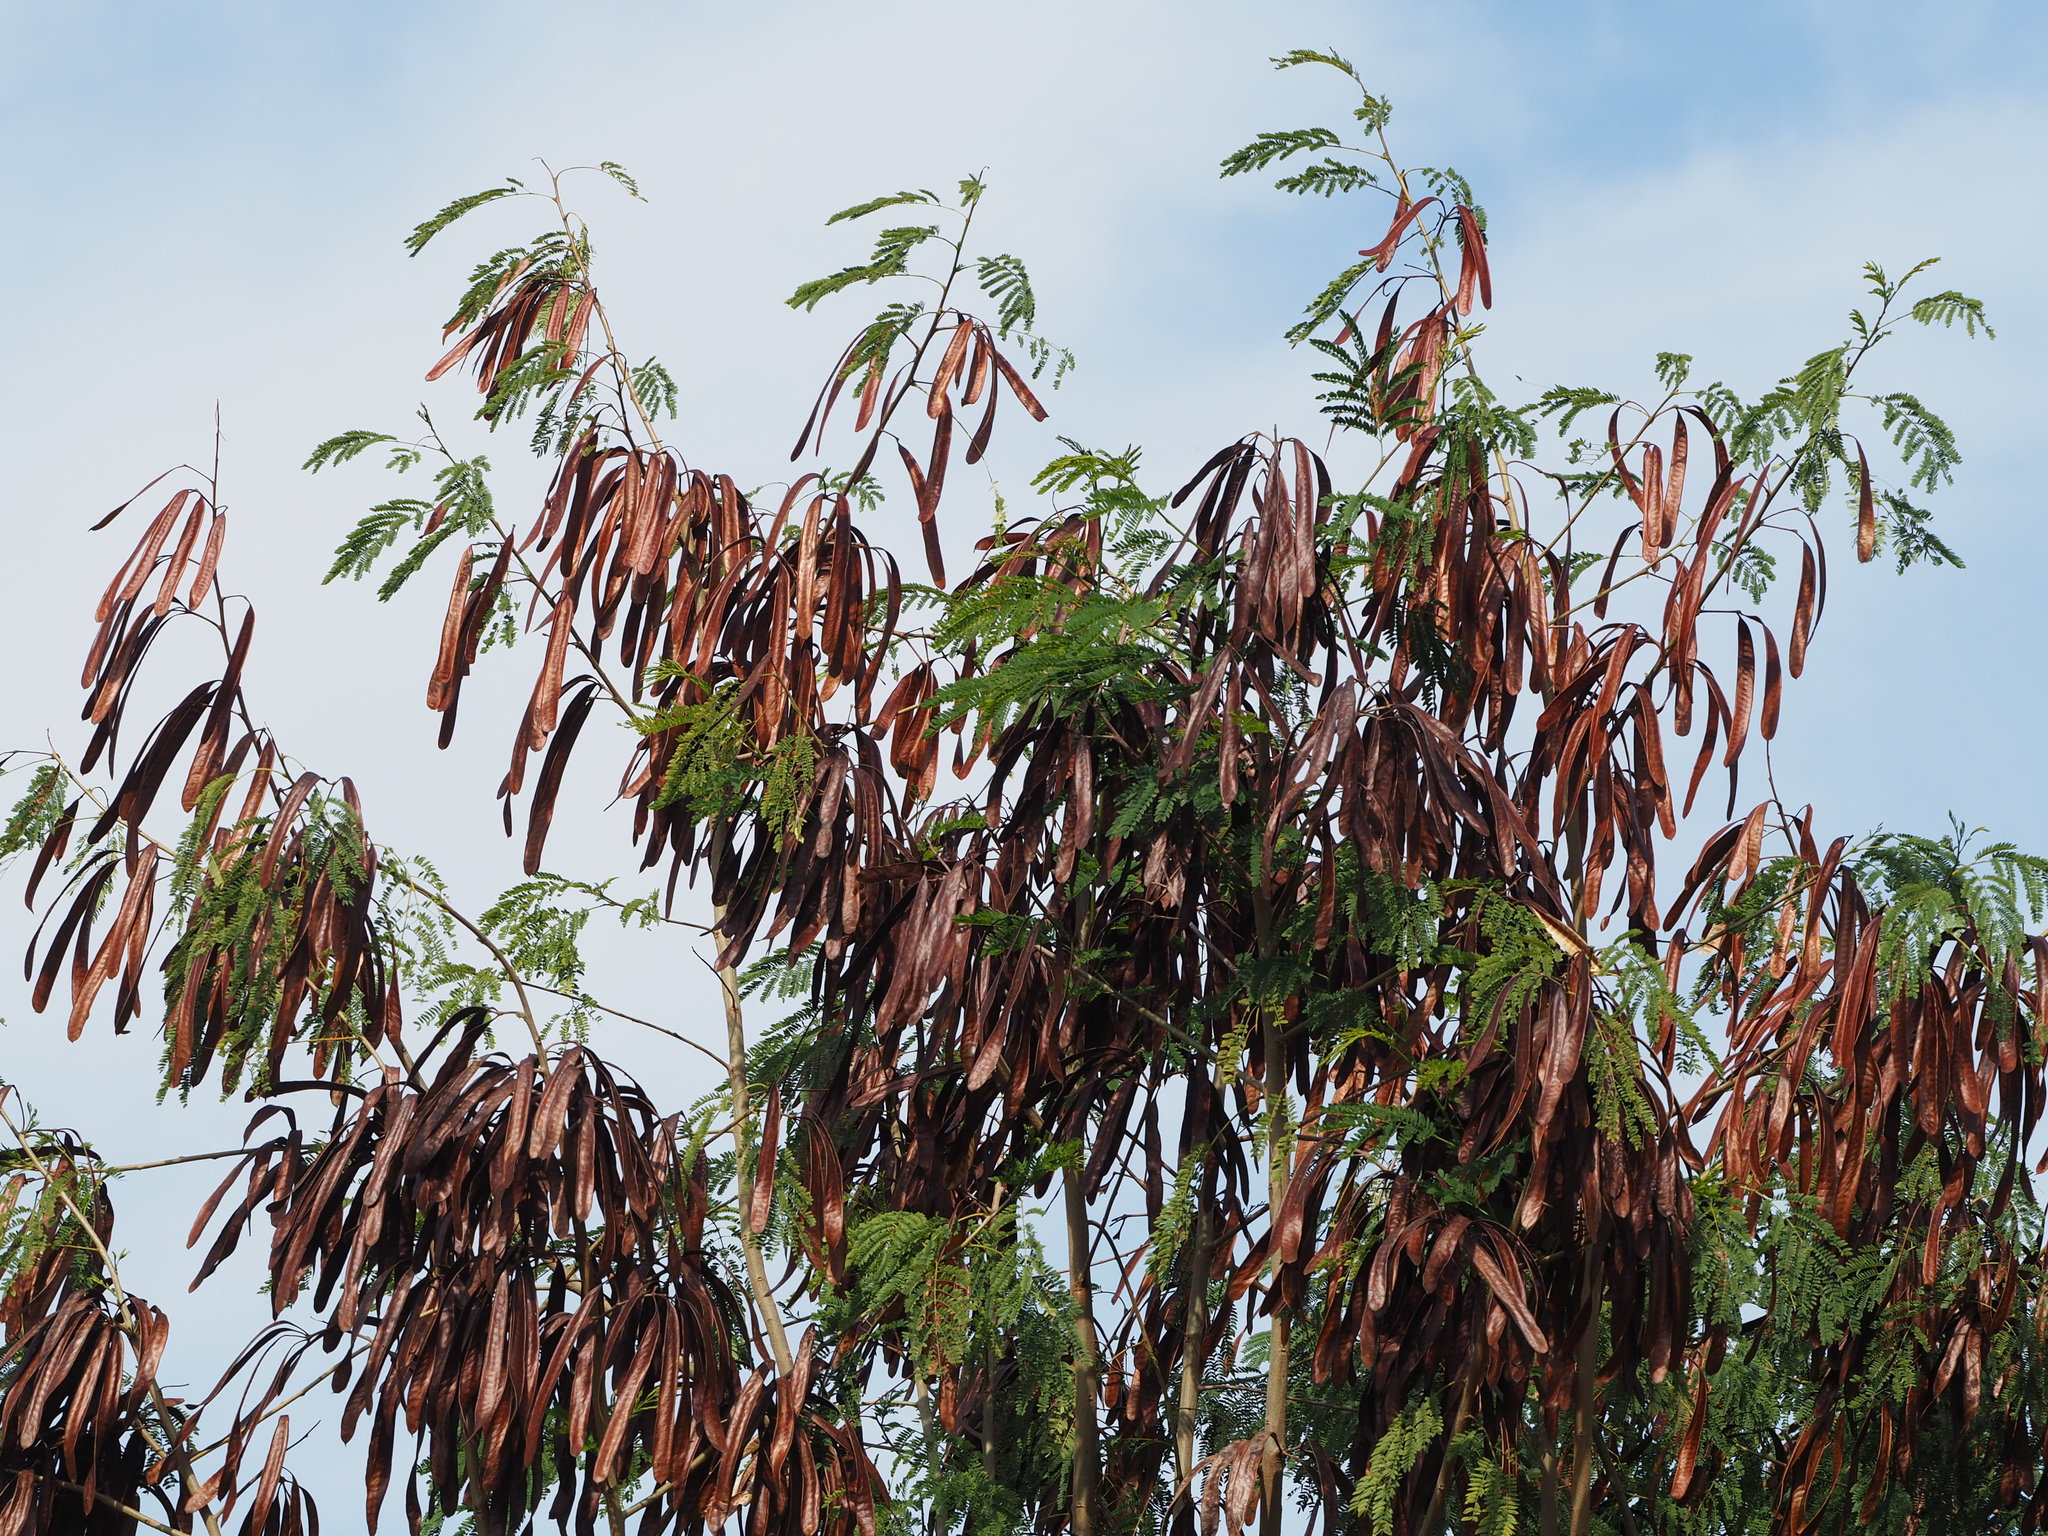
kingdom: Plantae
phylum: Tracheophyta
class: Magnoliopsida
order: Fabales
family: Fabaceae
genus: Leucaena
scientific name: Leucaena leucocephala
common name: White leadtree
